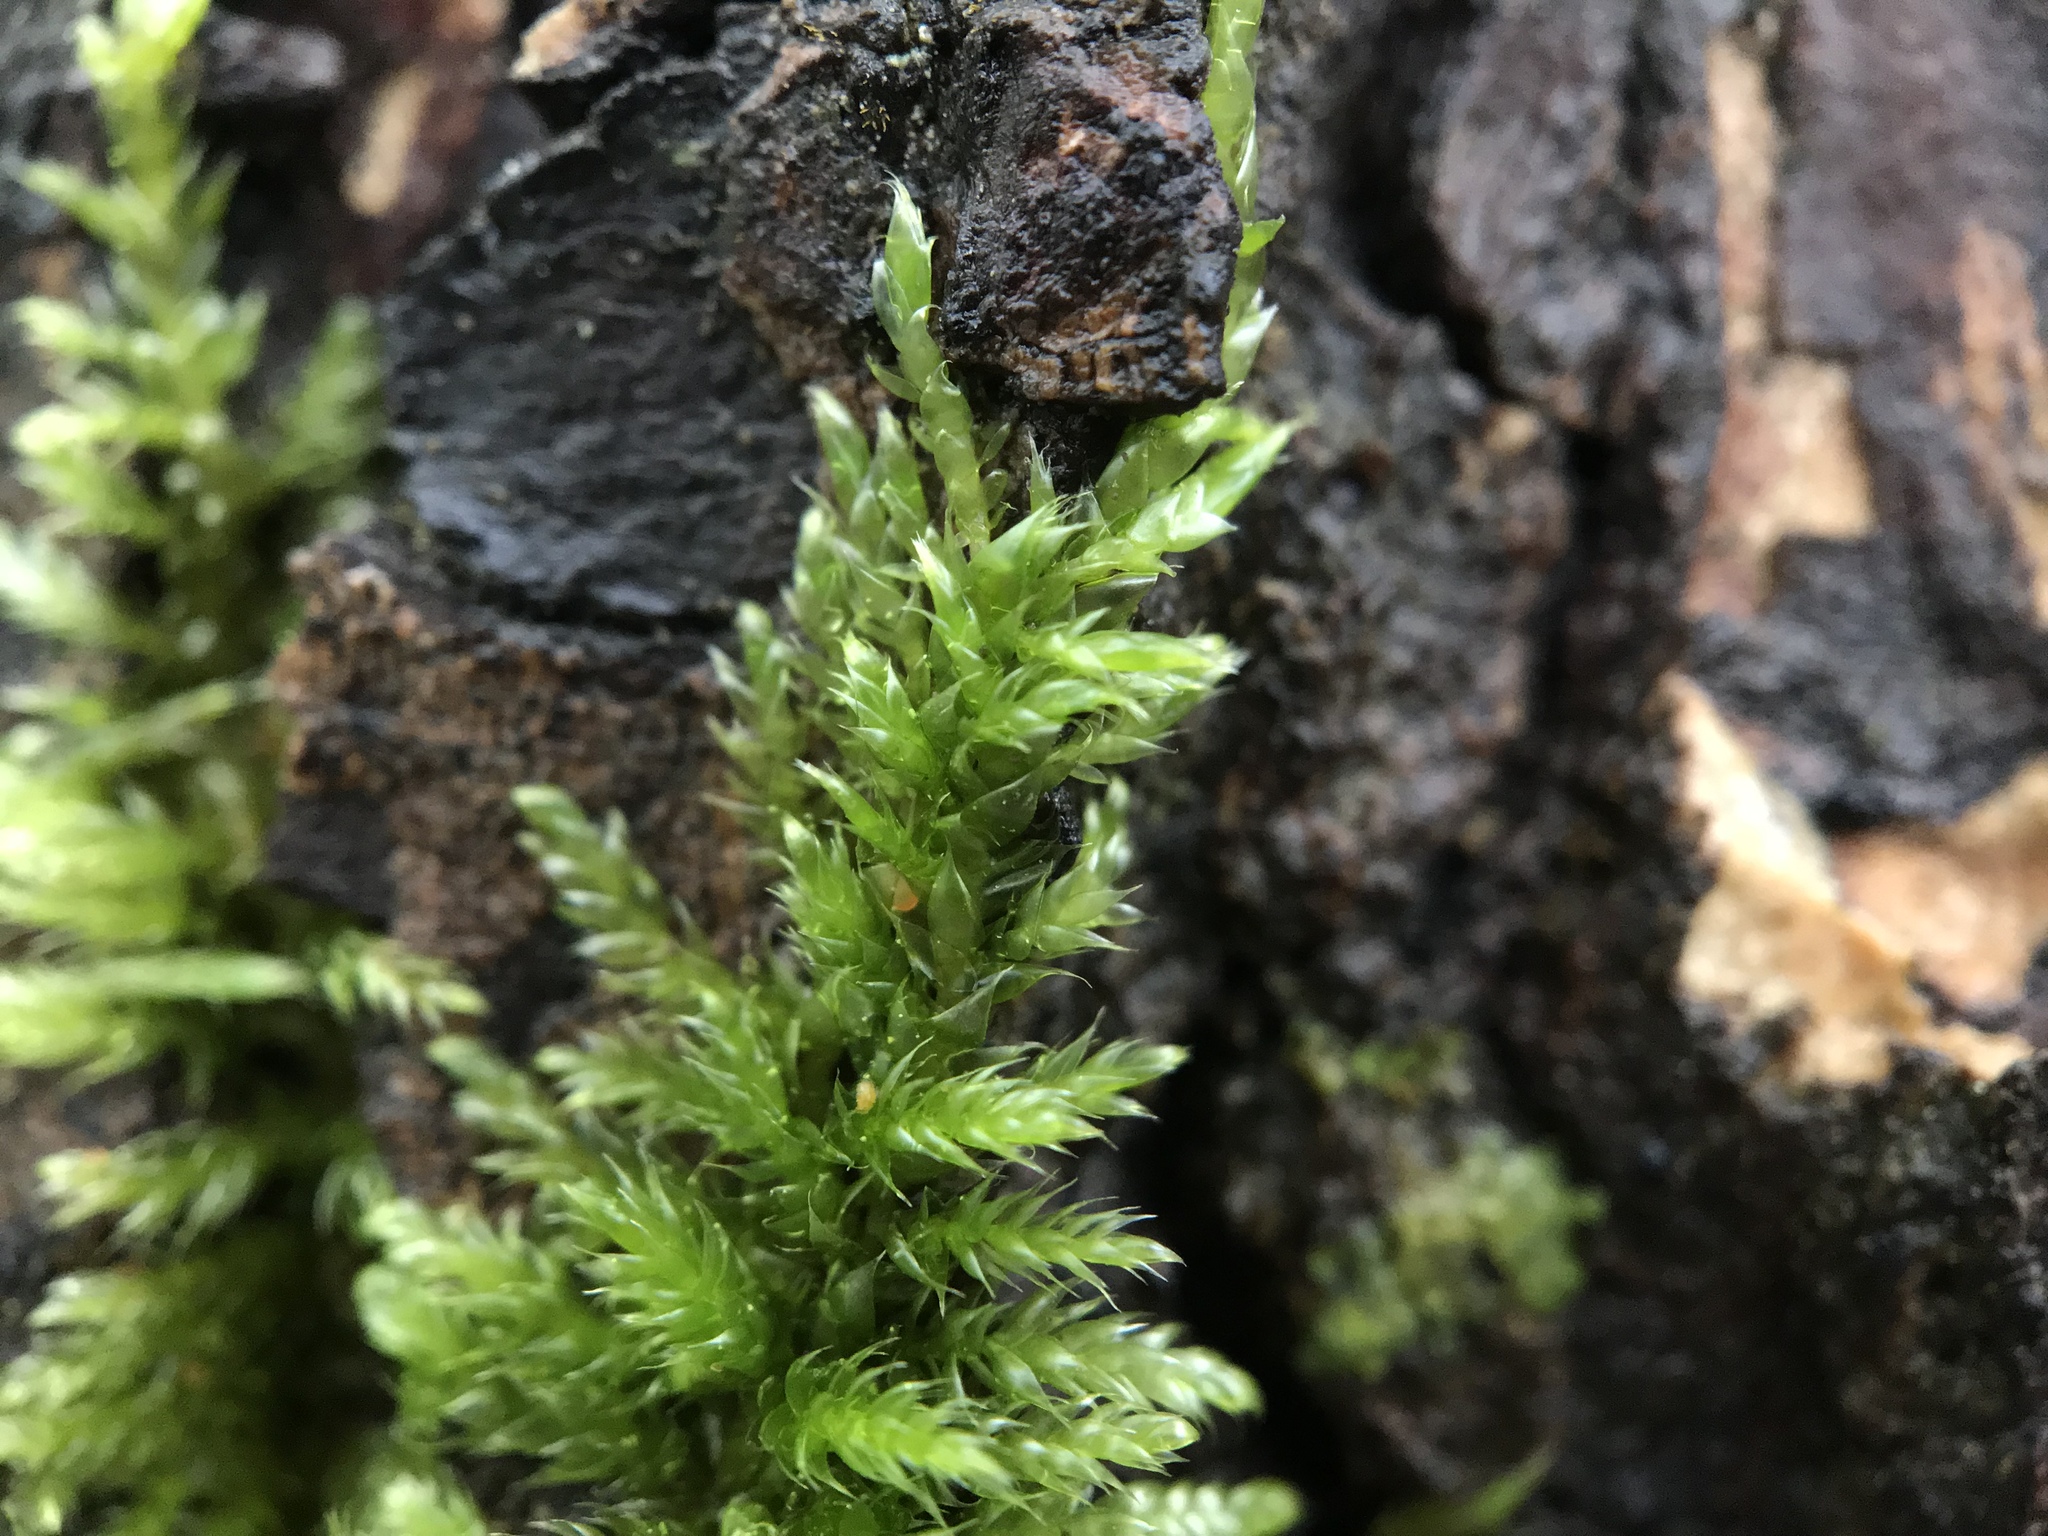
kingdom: Plantae
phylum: Bryophyta
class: Bryopsida
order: Hypnales
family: Hypnaceae
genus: Hypnum
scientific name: Hypnum resupinatum
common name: Supine plait-moss
